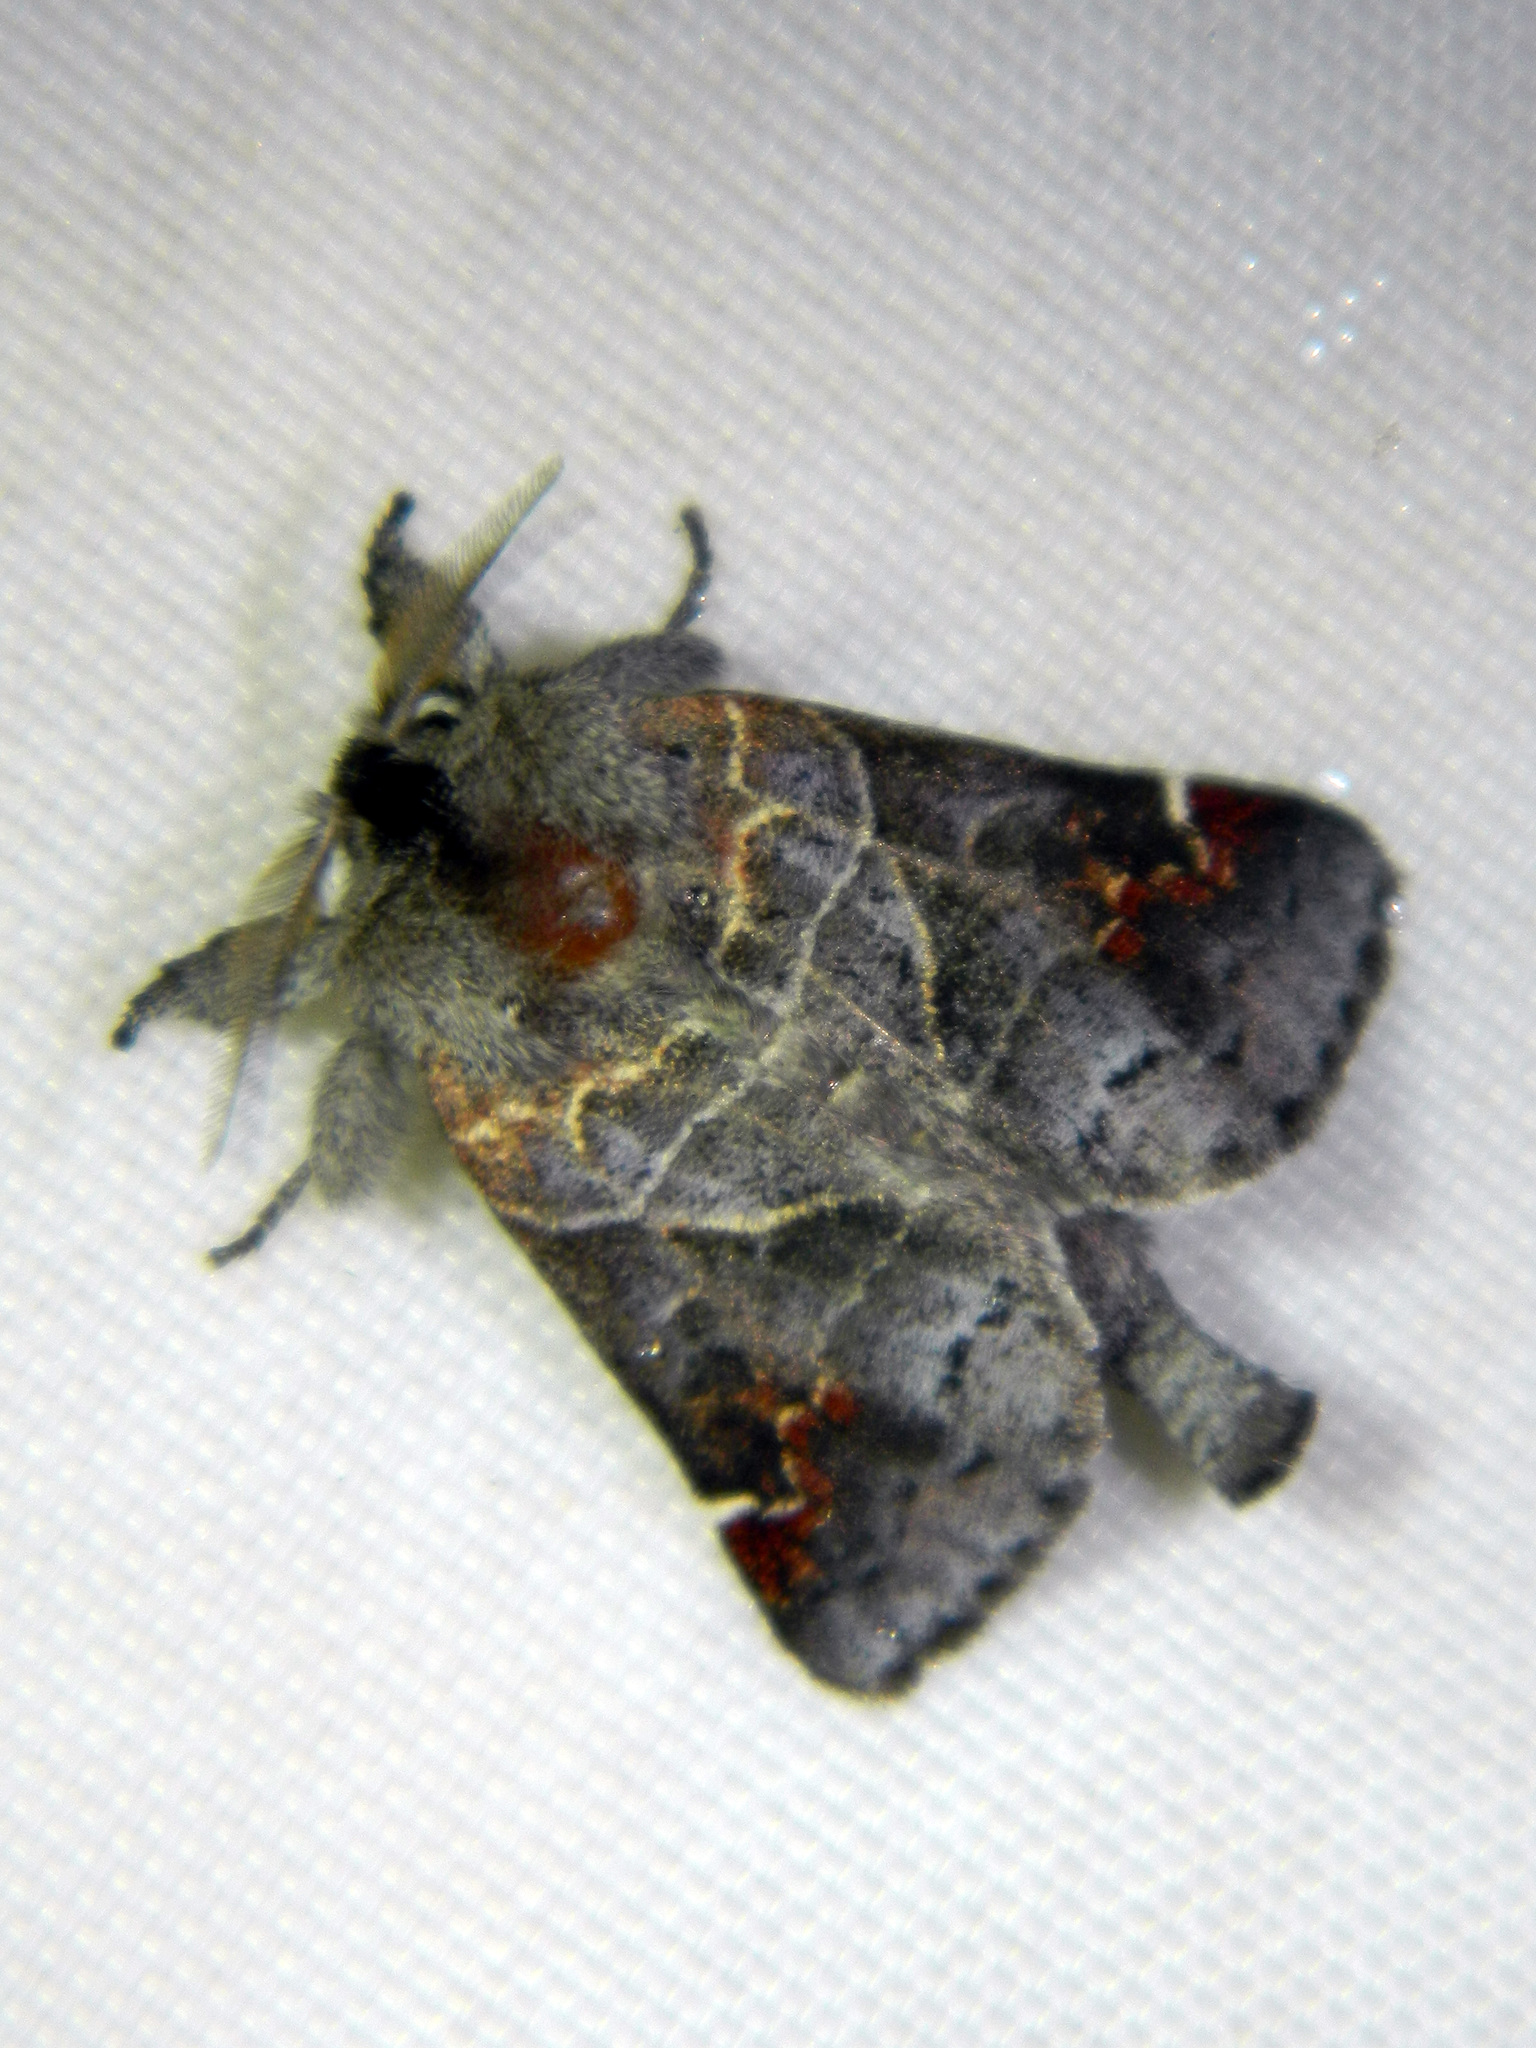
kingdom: Animalia
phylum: Arthropoda
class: Insecta
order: Lepidoptera
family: Notodontidae
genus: Clostera
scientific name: Clostera apicalis
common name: Apical prominent
